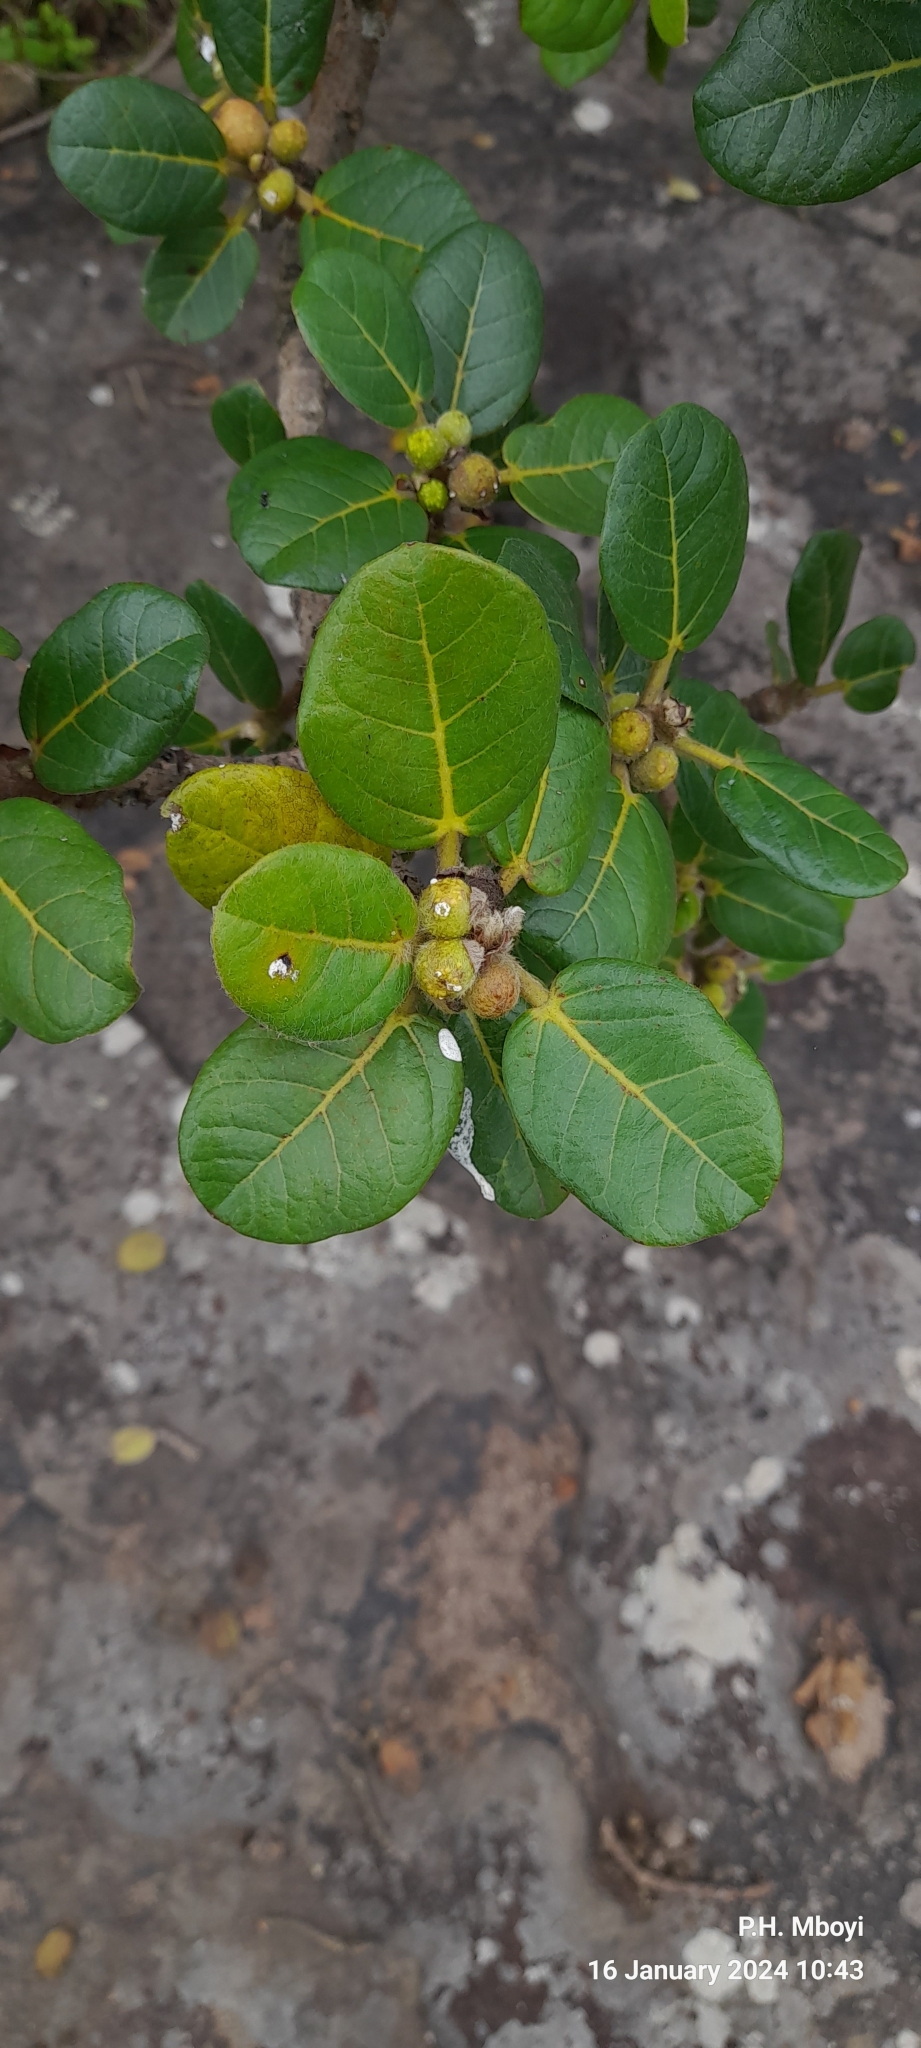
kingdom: Plantae
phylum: Tracheophyta
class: Magnoliopsida
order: Rosales
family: Moraceae
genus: Ficus
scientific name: Ficus glumosa
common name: Hairy rock fig
